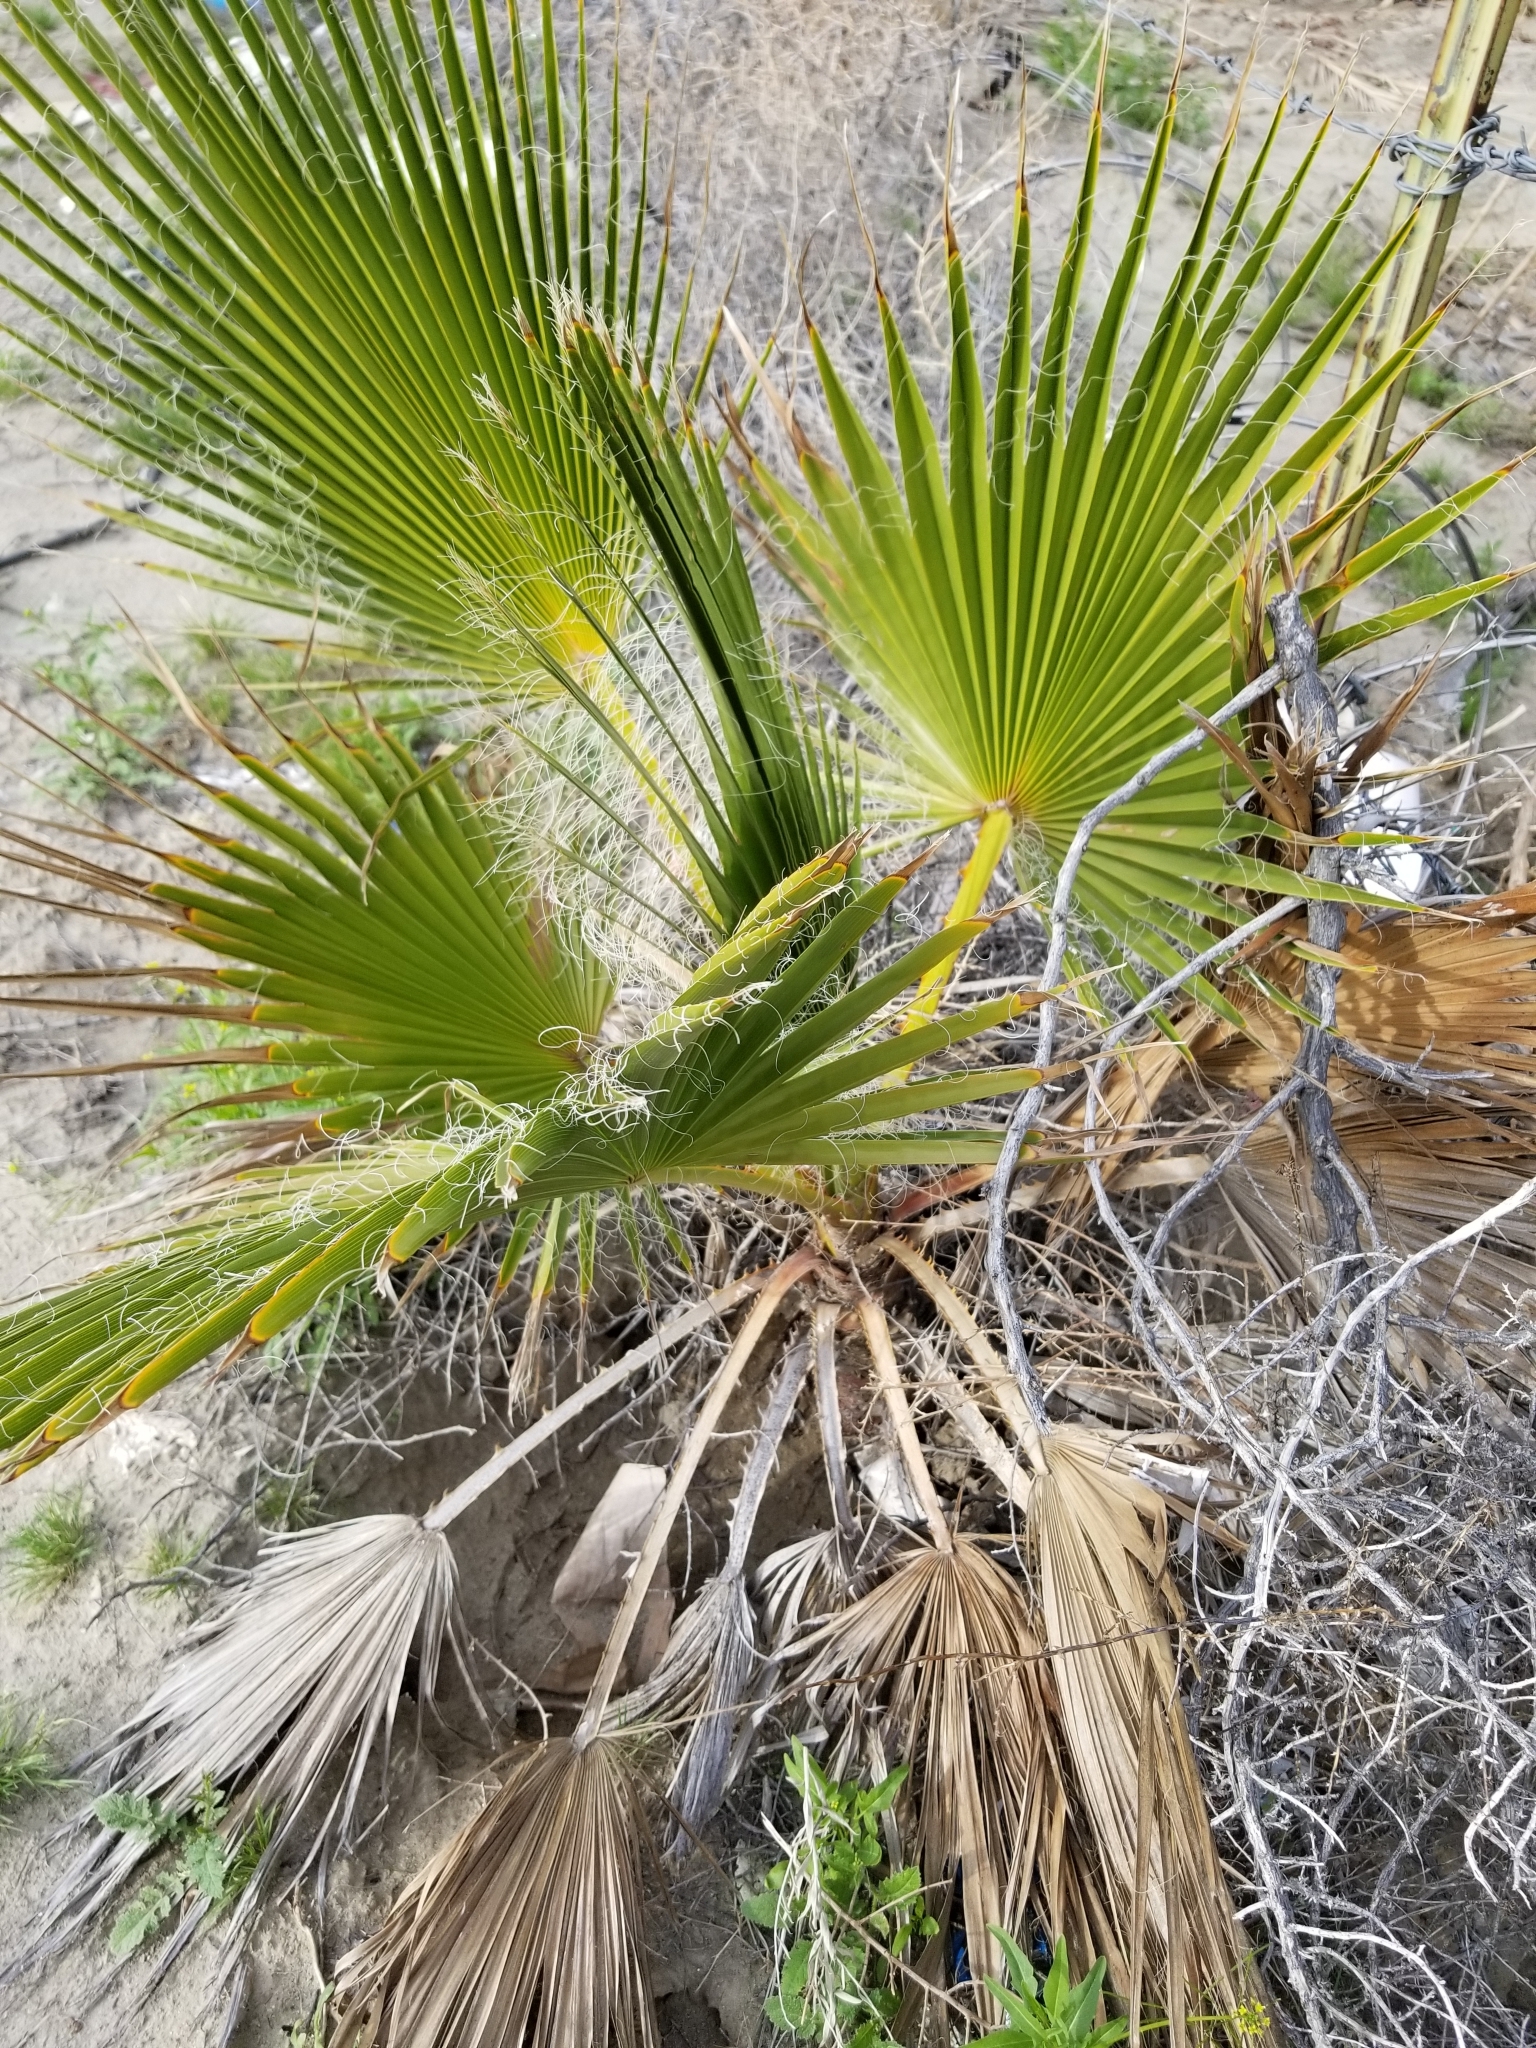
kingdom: Plantae
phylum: Tracheophyta
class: Liliopsida
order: Arecales
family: Arecaceae
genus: Washingtonia
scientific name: Washingtonia filifera
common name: California fan palm
